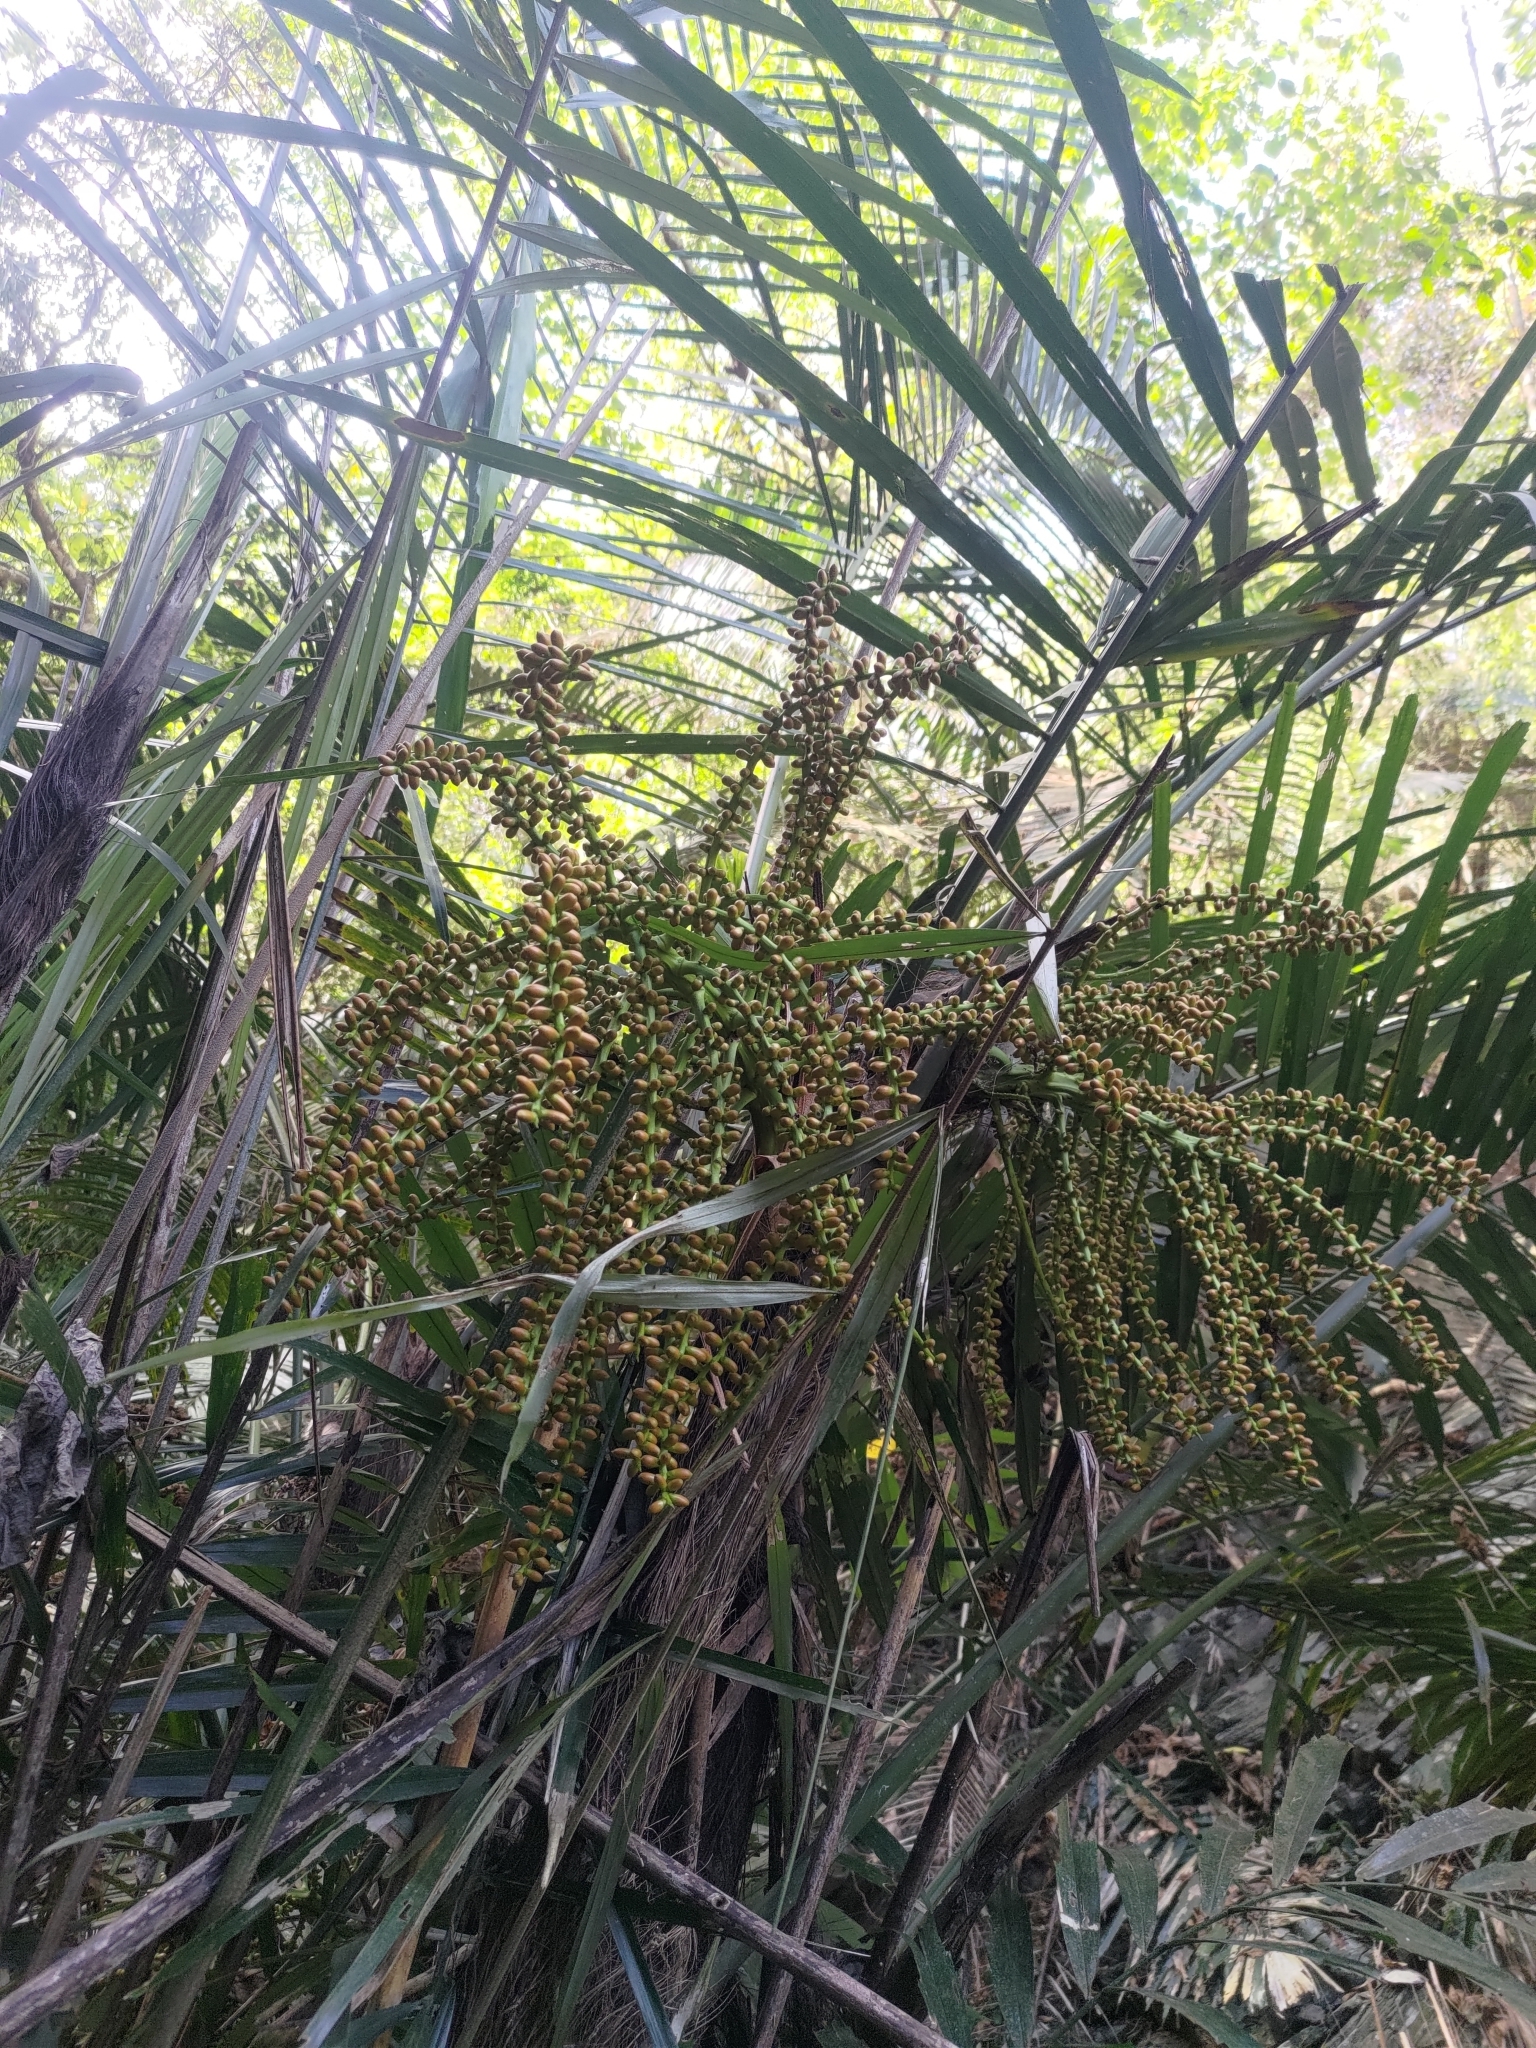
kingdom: Plantae
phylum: Tracheophyta
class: Liliopsida
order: Arecales
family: Arecaceae
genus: Arenga
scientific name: Arenga engleri
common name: Formosan sugar palm
